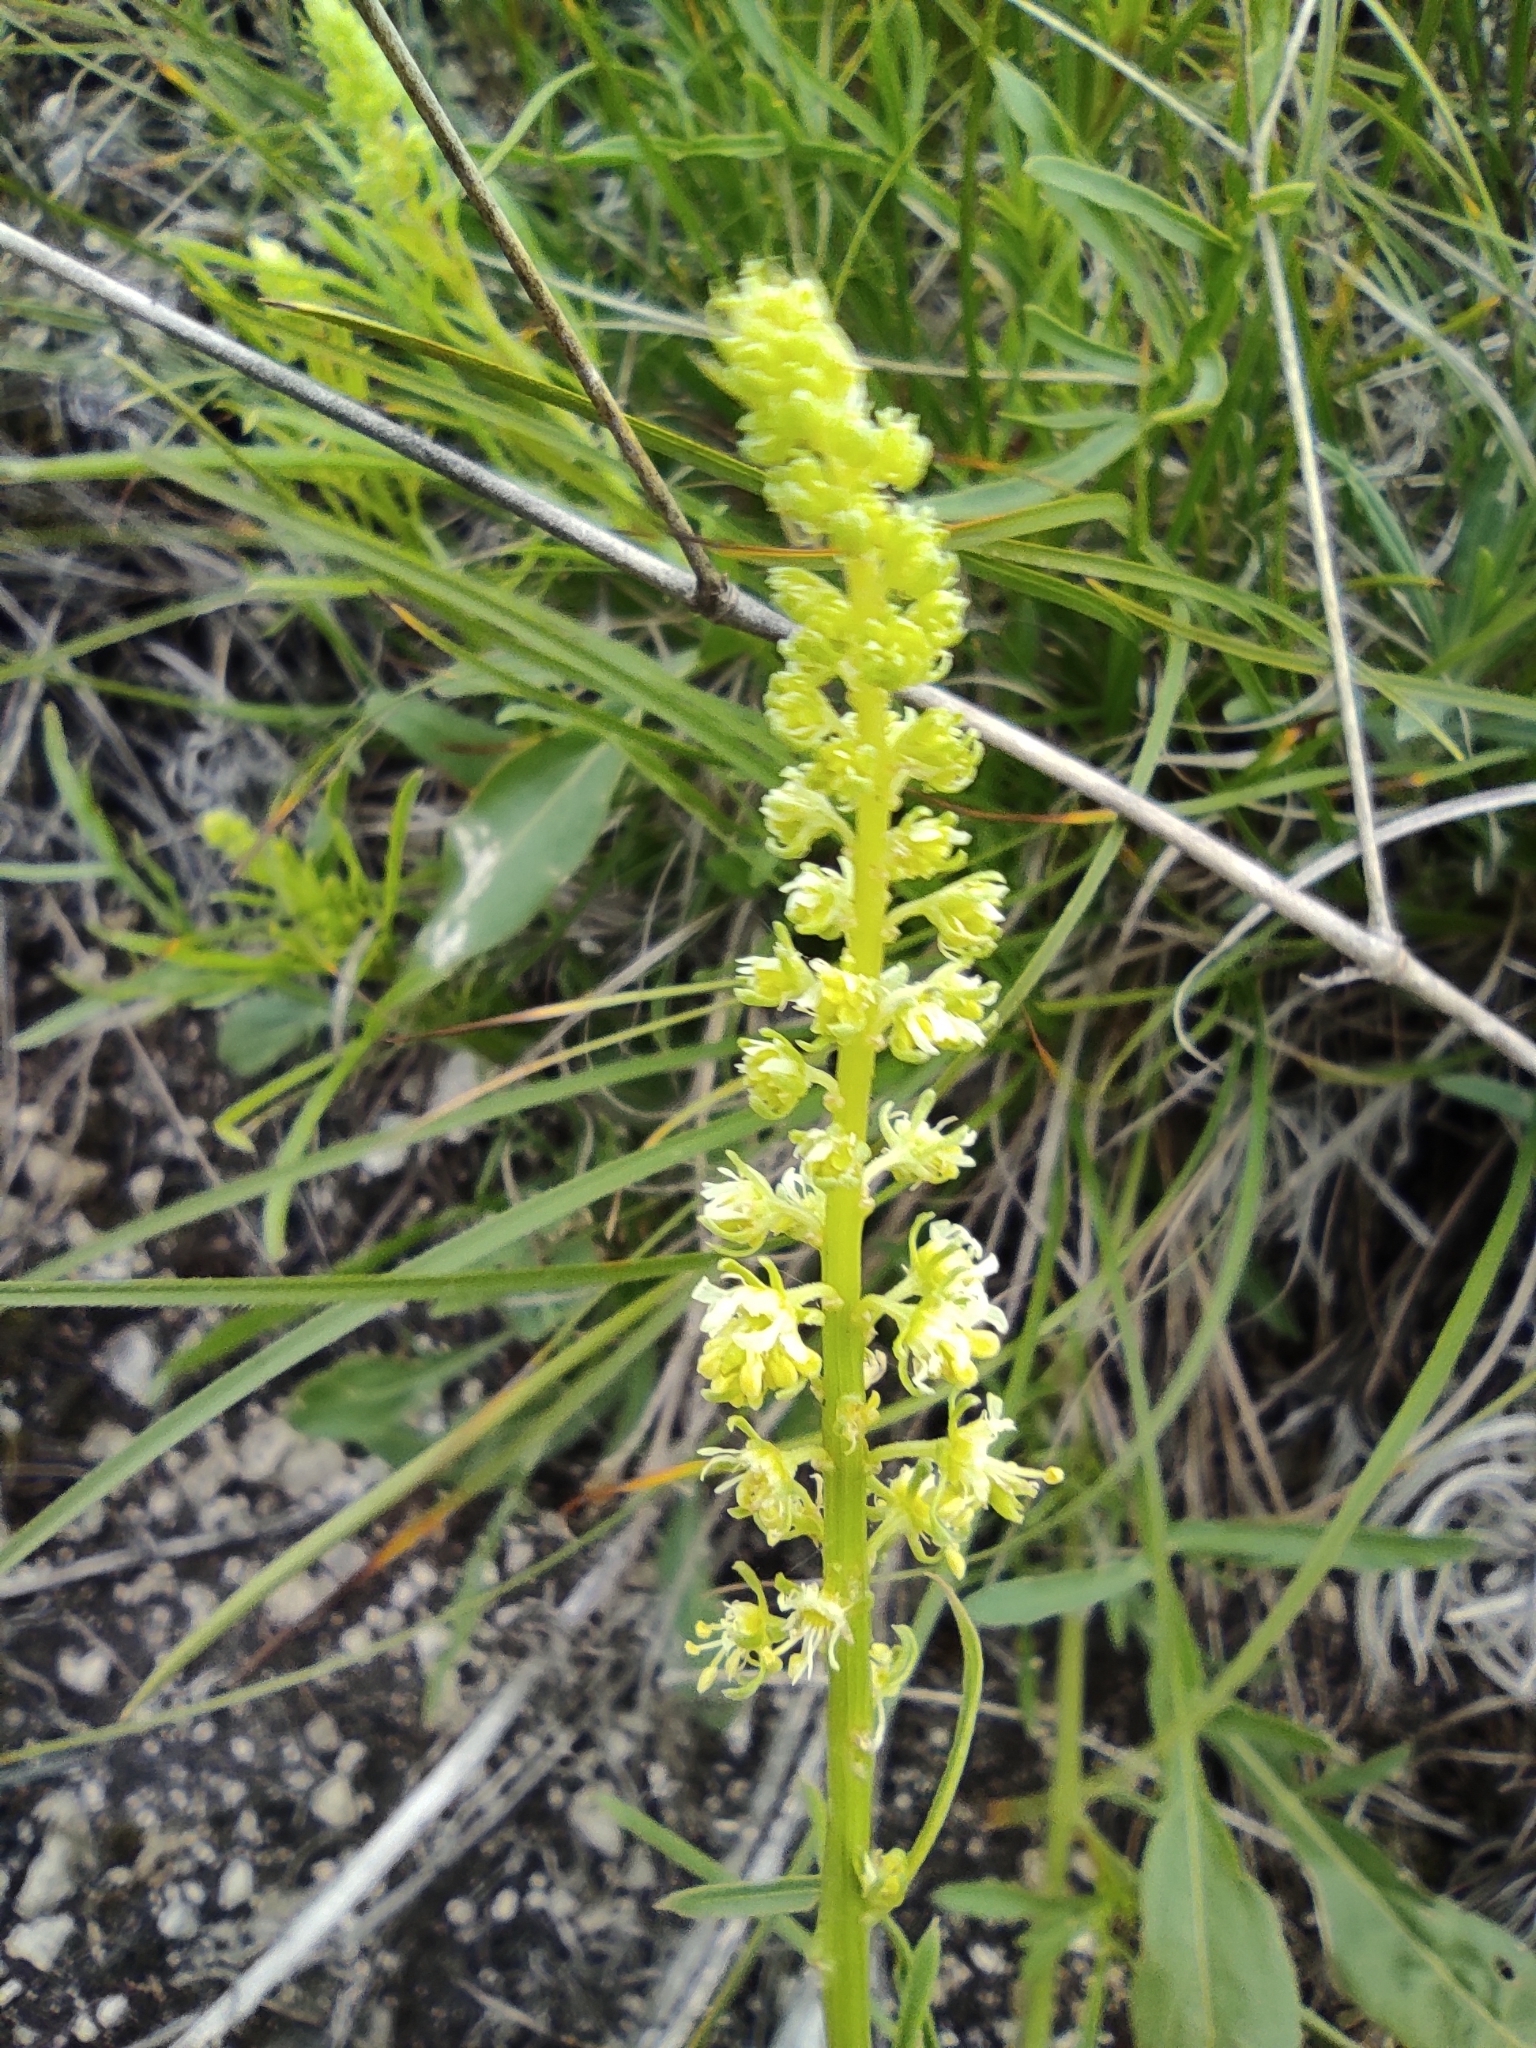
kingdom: Plantae
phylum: Tracheophyta
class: Magnoliopsida
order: Brassicales
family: Resedaceae
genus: Reseda
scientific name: Reseda lutea
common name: Wild mignonette
